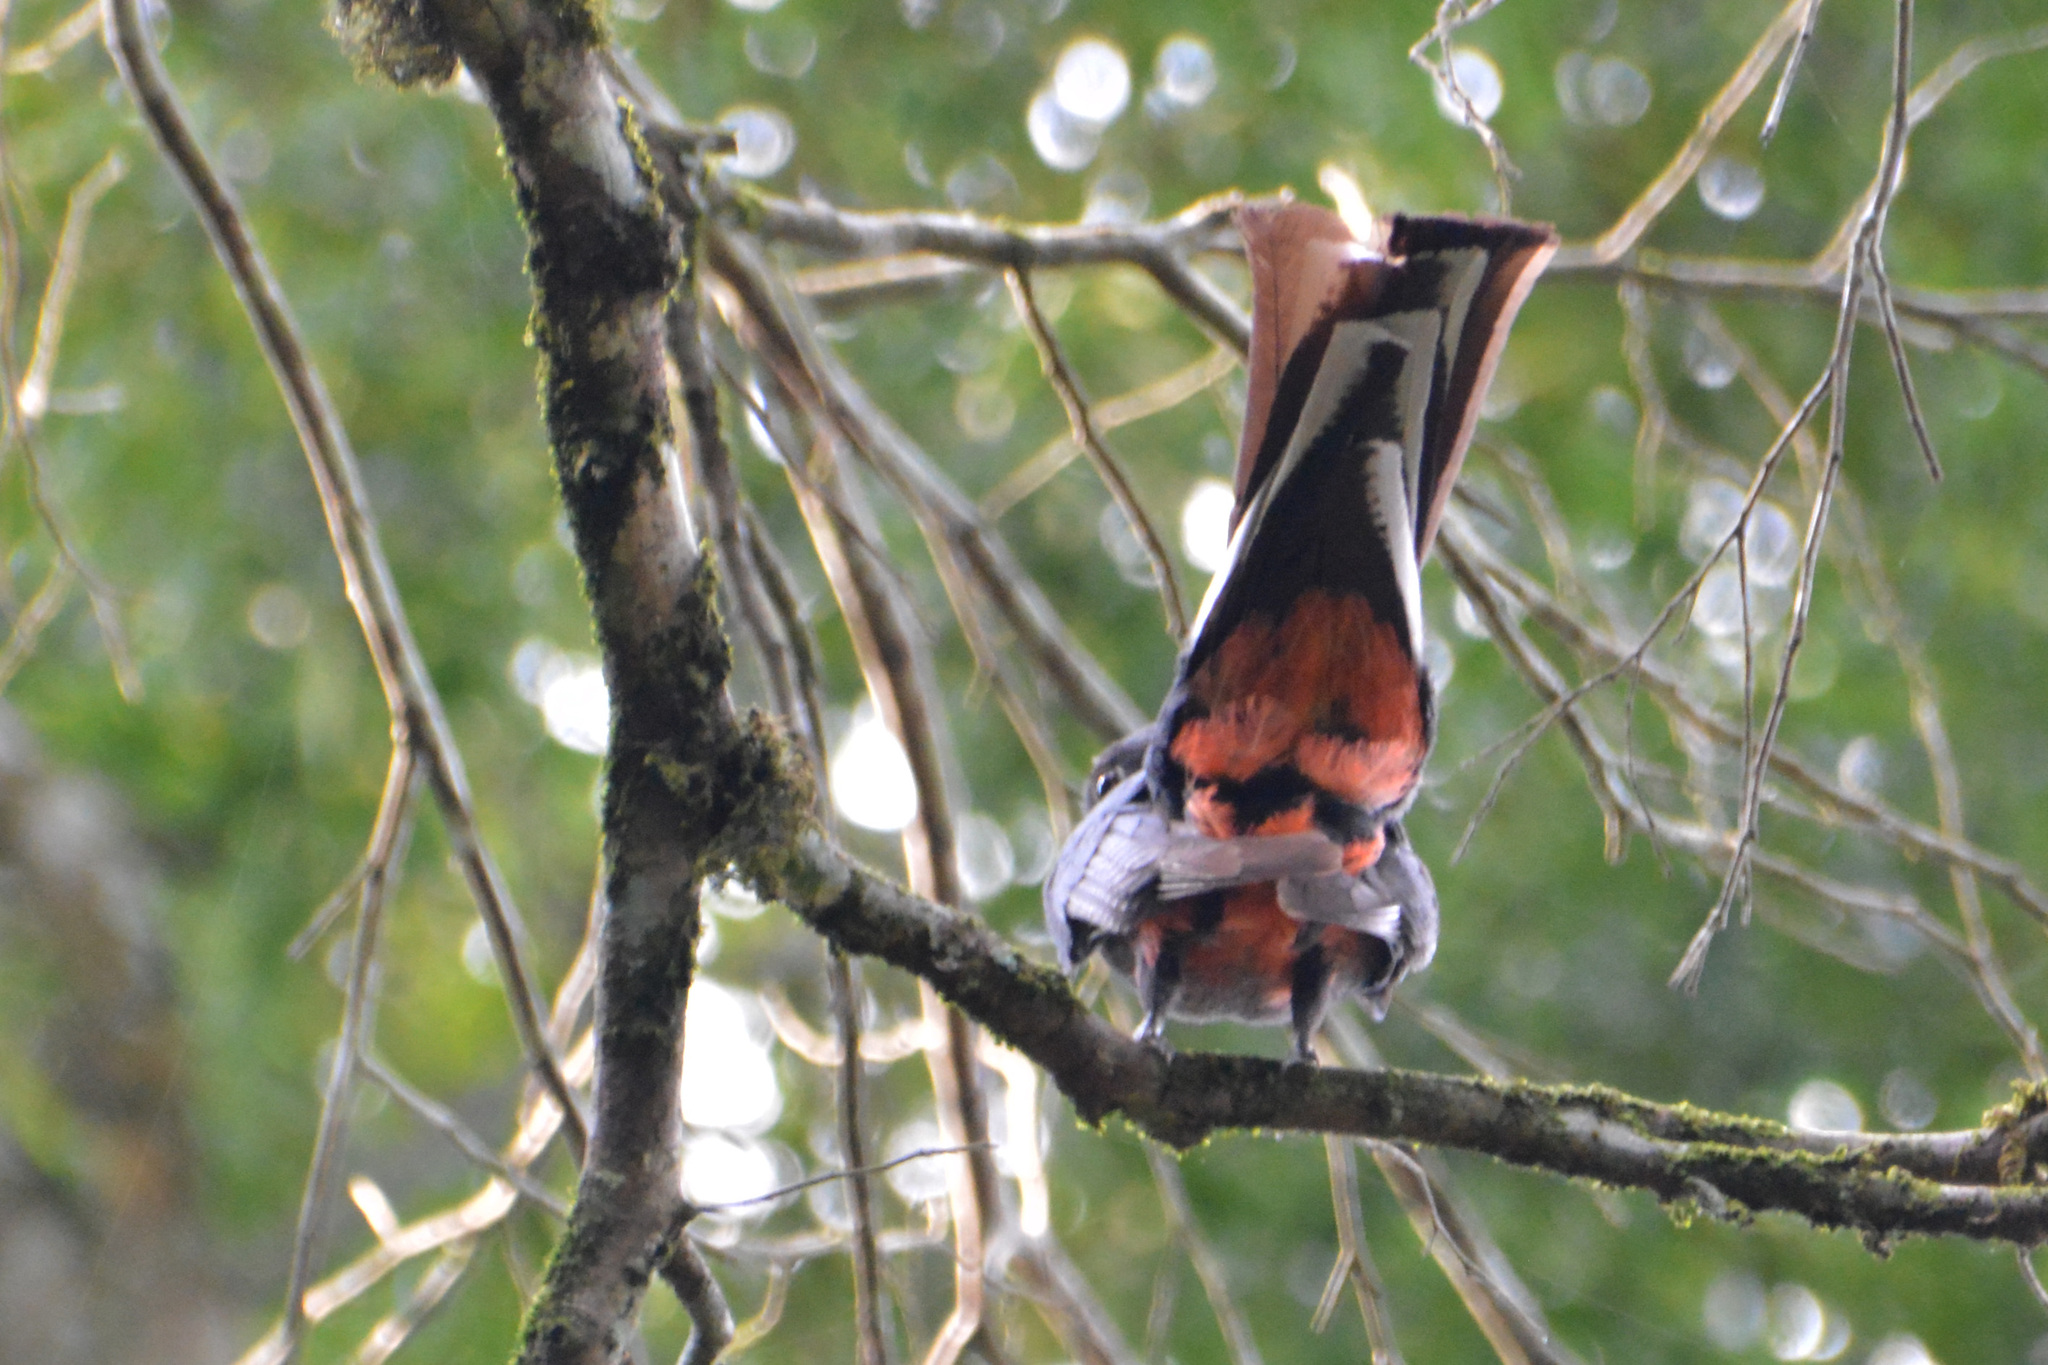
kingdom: Animalia
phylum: Chordata
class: Aves
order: Trogoniformes
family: Trogonidae
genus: Trogon
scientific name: Trogon surrucura
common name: Surucua trogon
